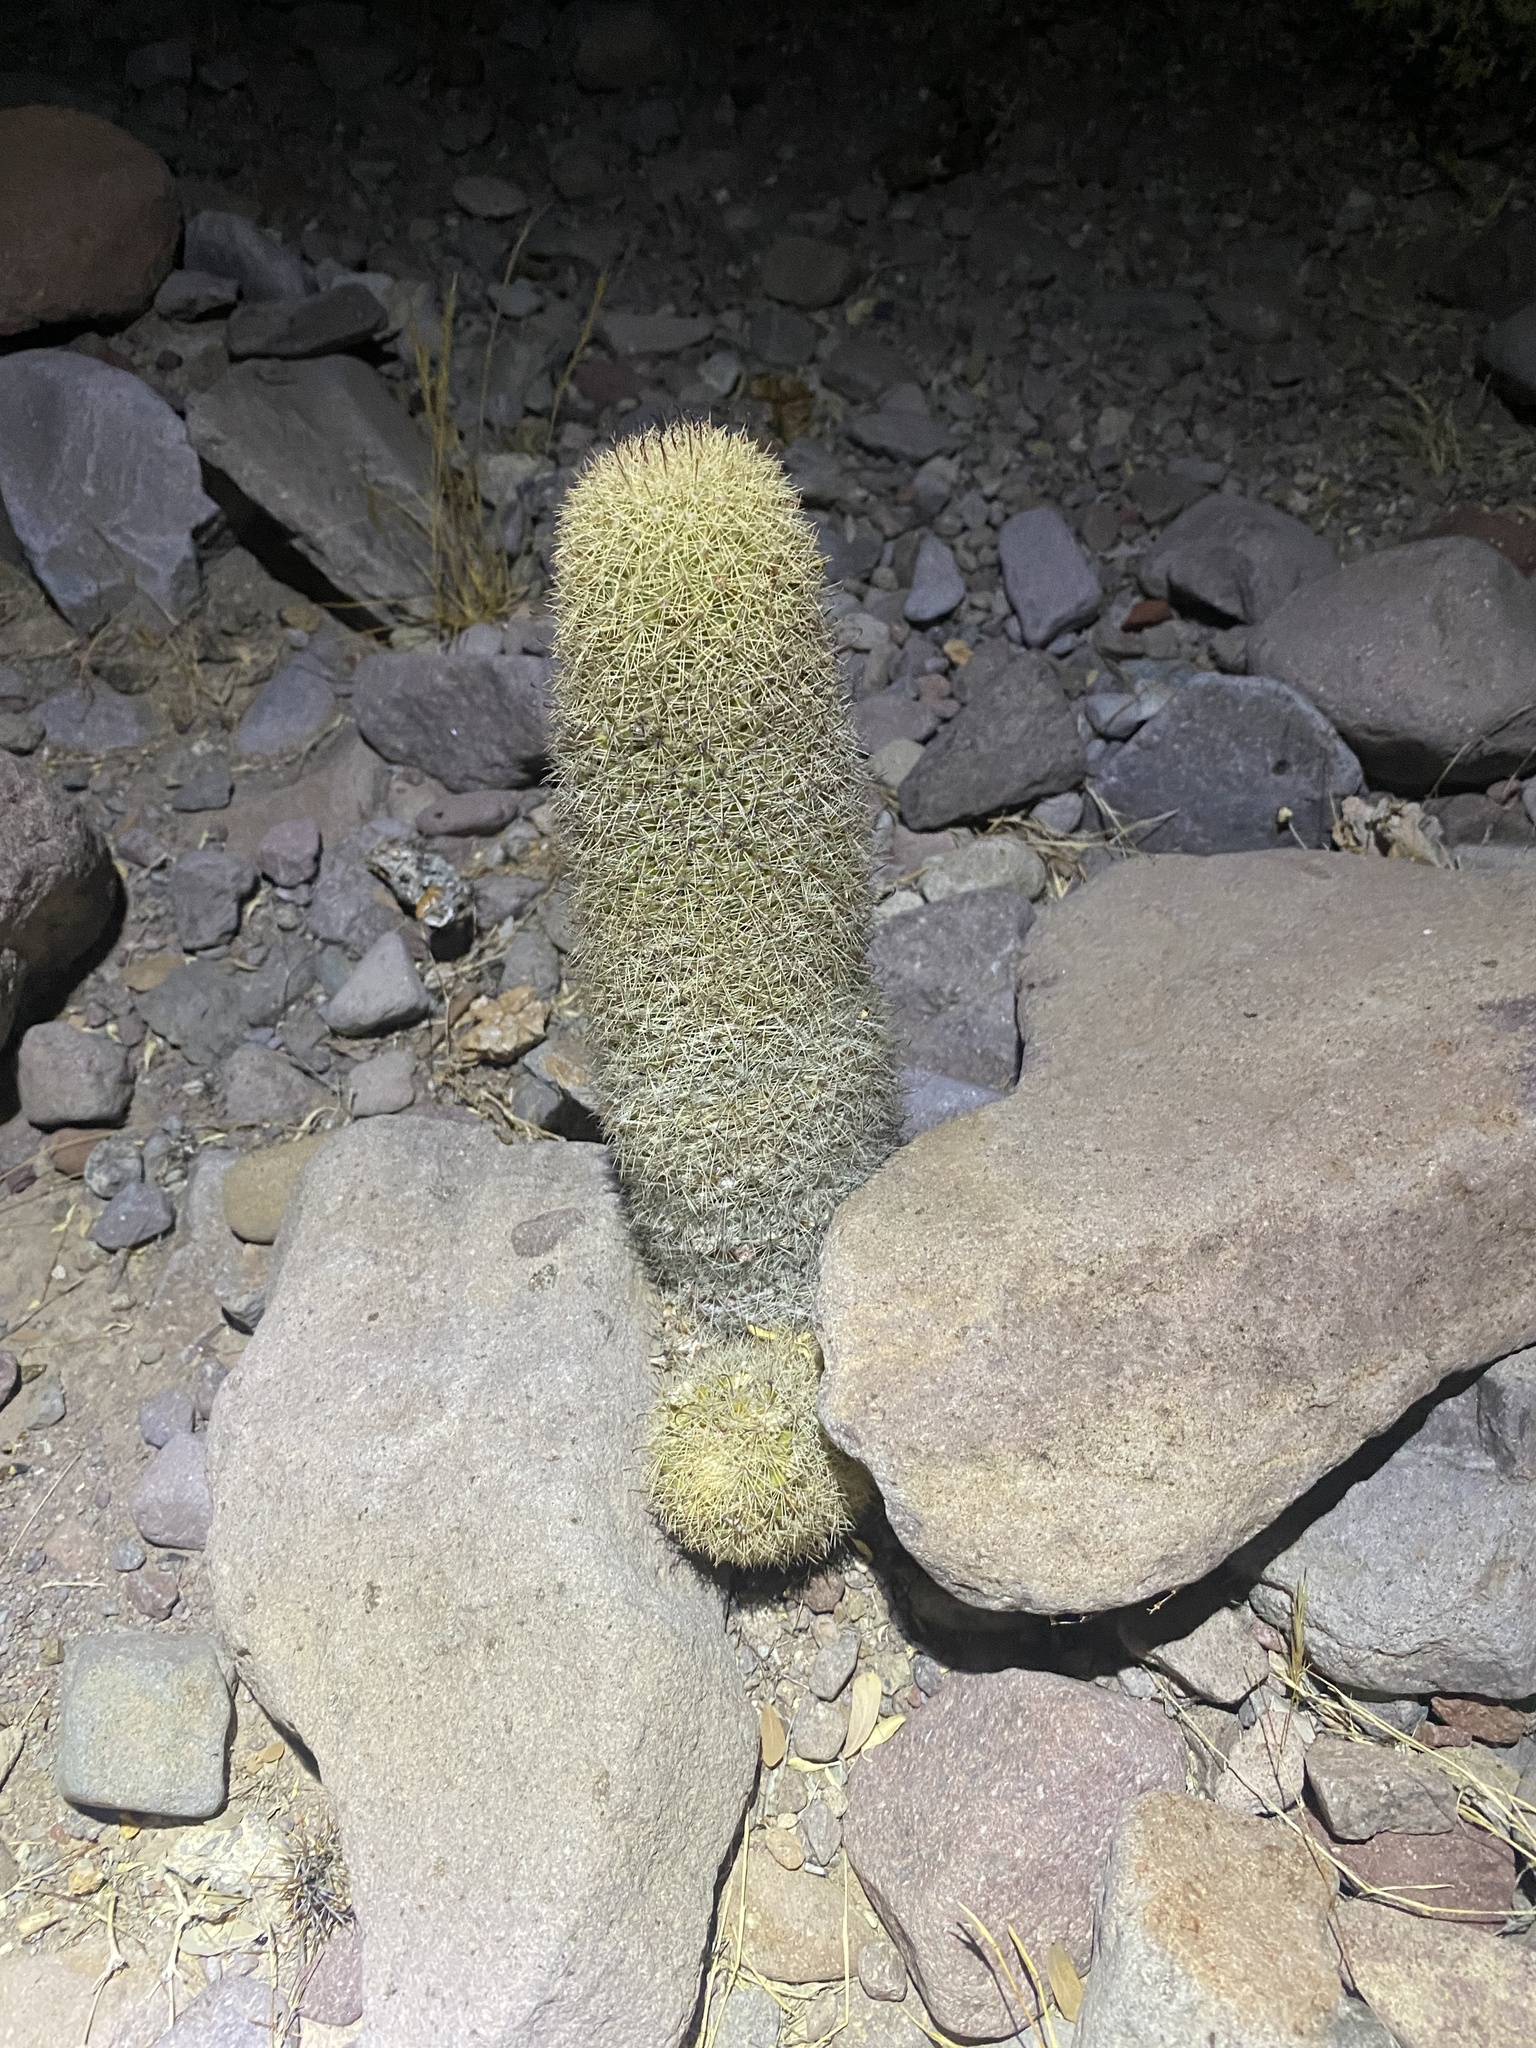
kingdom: Plantae
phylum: Tracheophyta
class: Magnoliopsida
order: Caryophyllales
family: Cactaceae
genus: Cochemiea
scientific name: Cochemiea estebanensis
